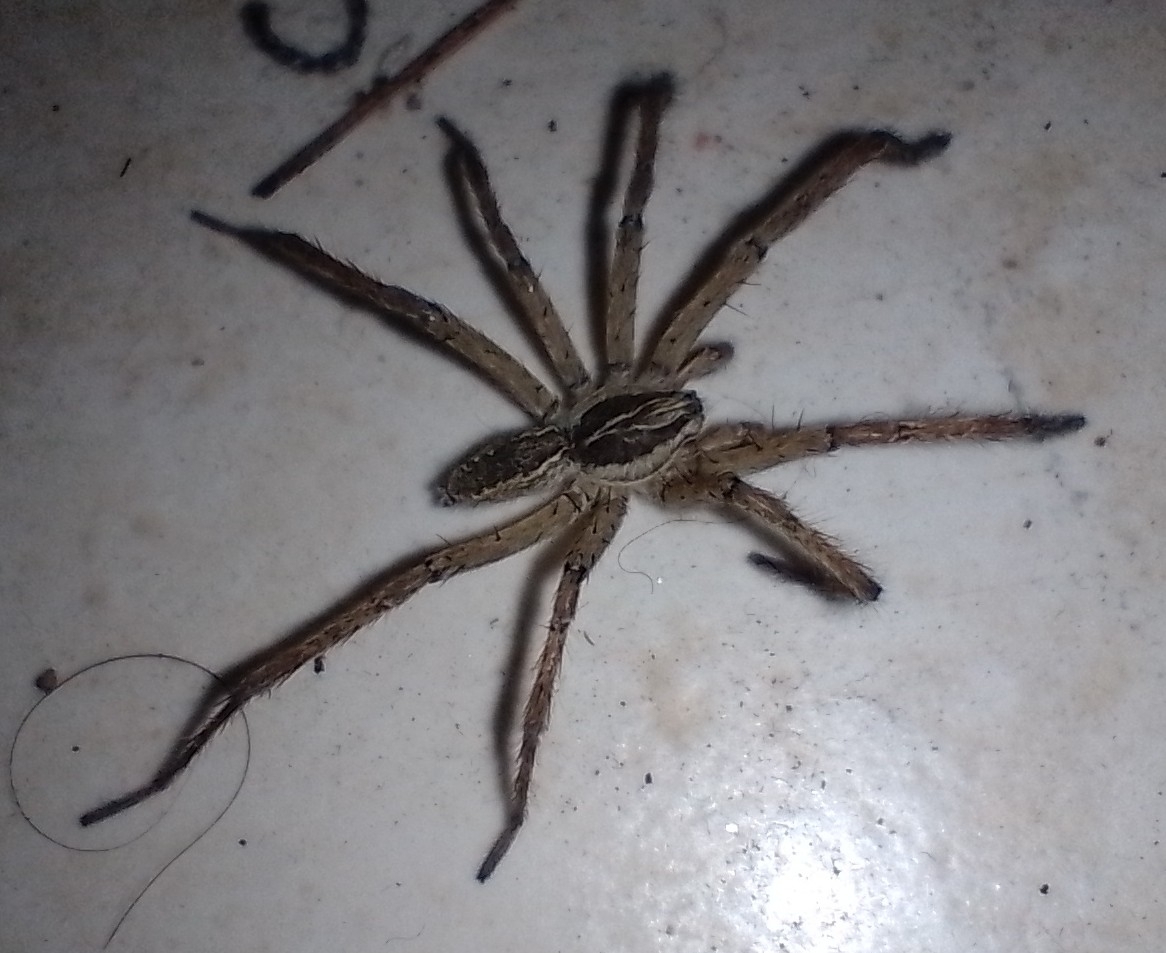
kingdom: Animalia
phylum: Arthropoda
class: Arachnida
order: Araneae
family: Lycosidae
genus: Aglaoctenus
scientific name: Aglaoctenus lagotis
